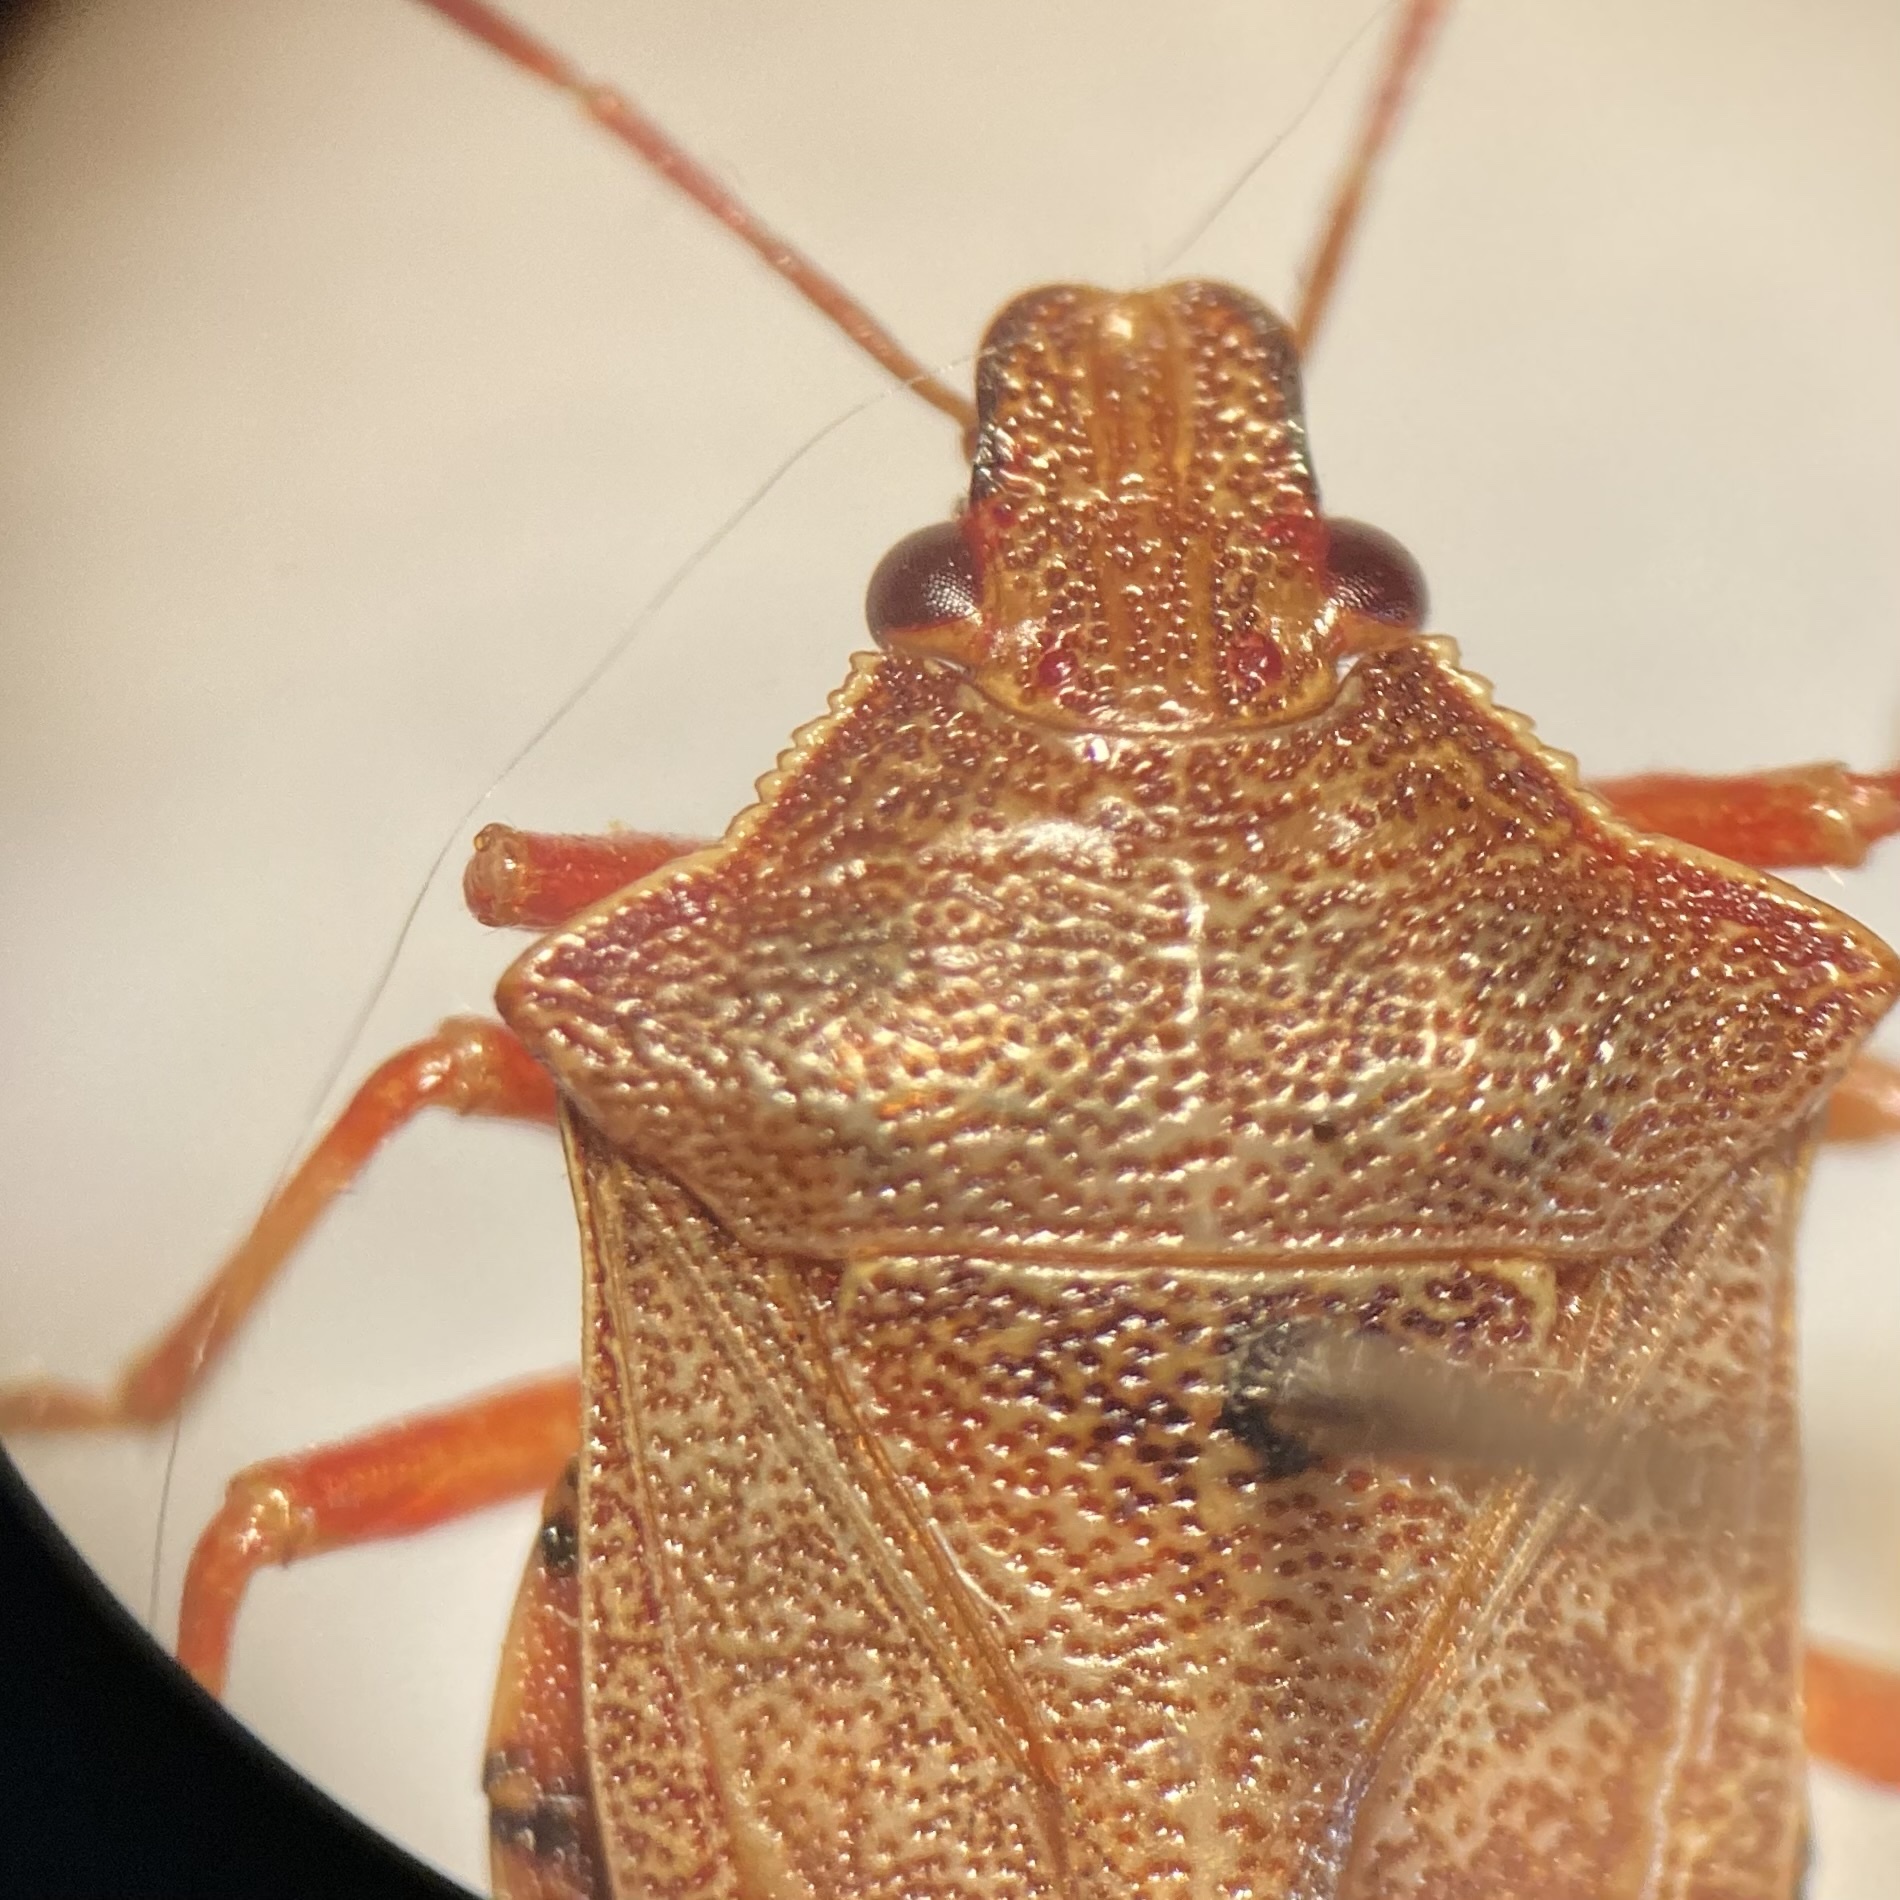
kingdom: Animalia
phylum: Arthropoda
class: Insecta
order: Hemiptera
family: Pentatomidae
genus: Podisus
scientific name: Podisus brevispinus
